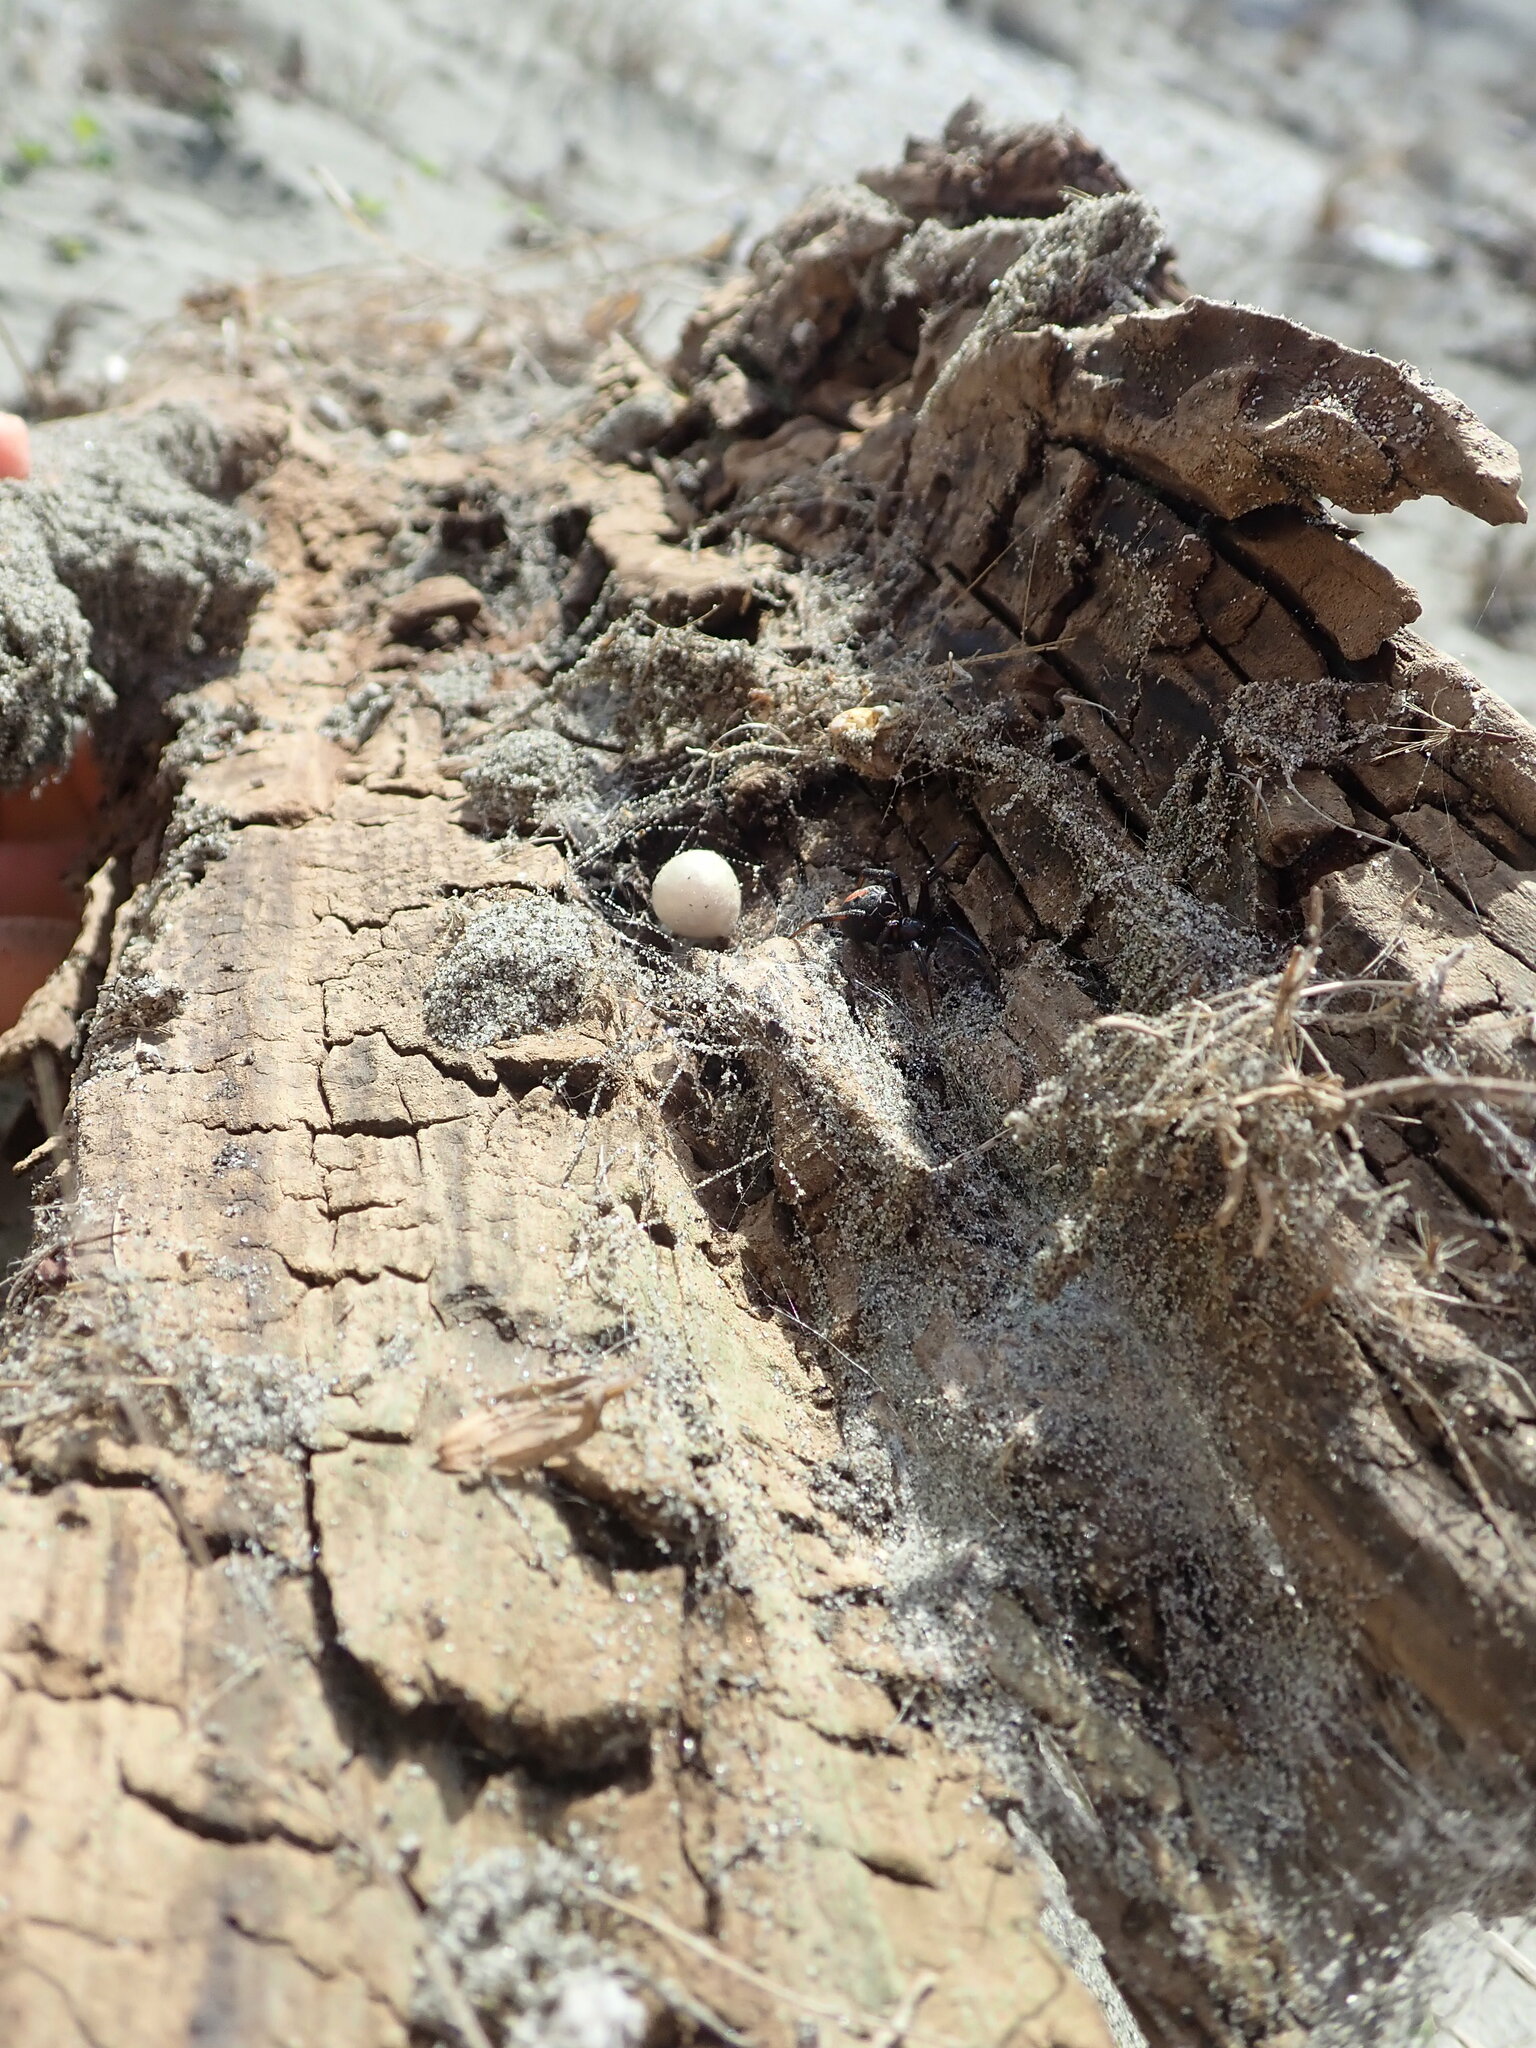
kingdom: Animalia
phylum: Arthropoda
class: Arachnida
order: Araneae
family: Theridiidae
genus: Latrodectus
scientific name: Latrodectus katipo
